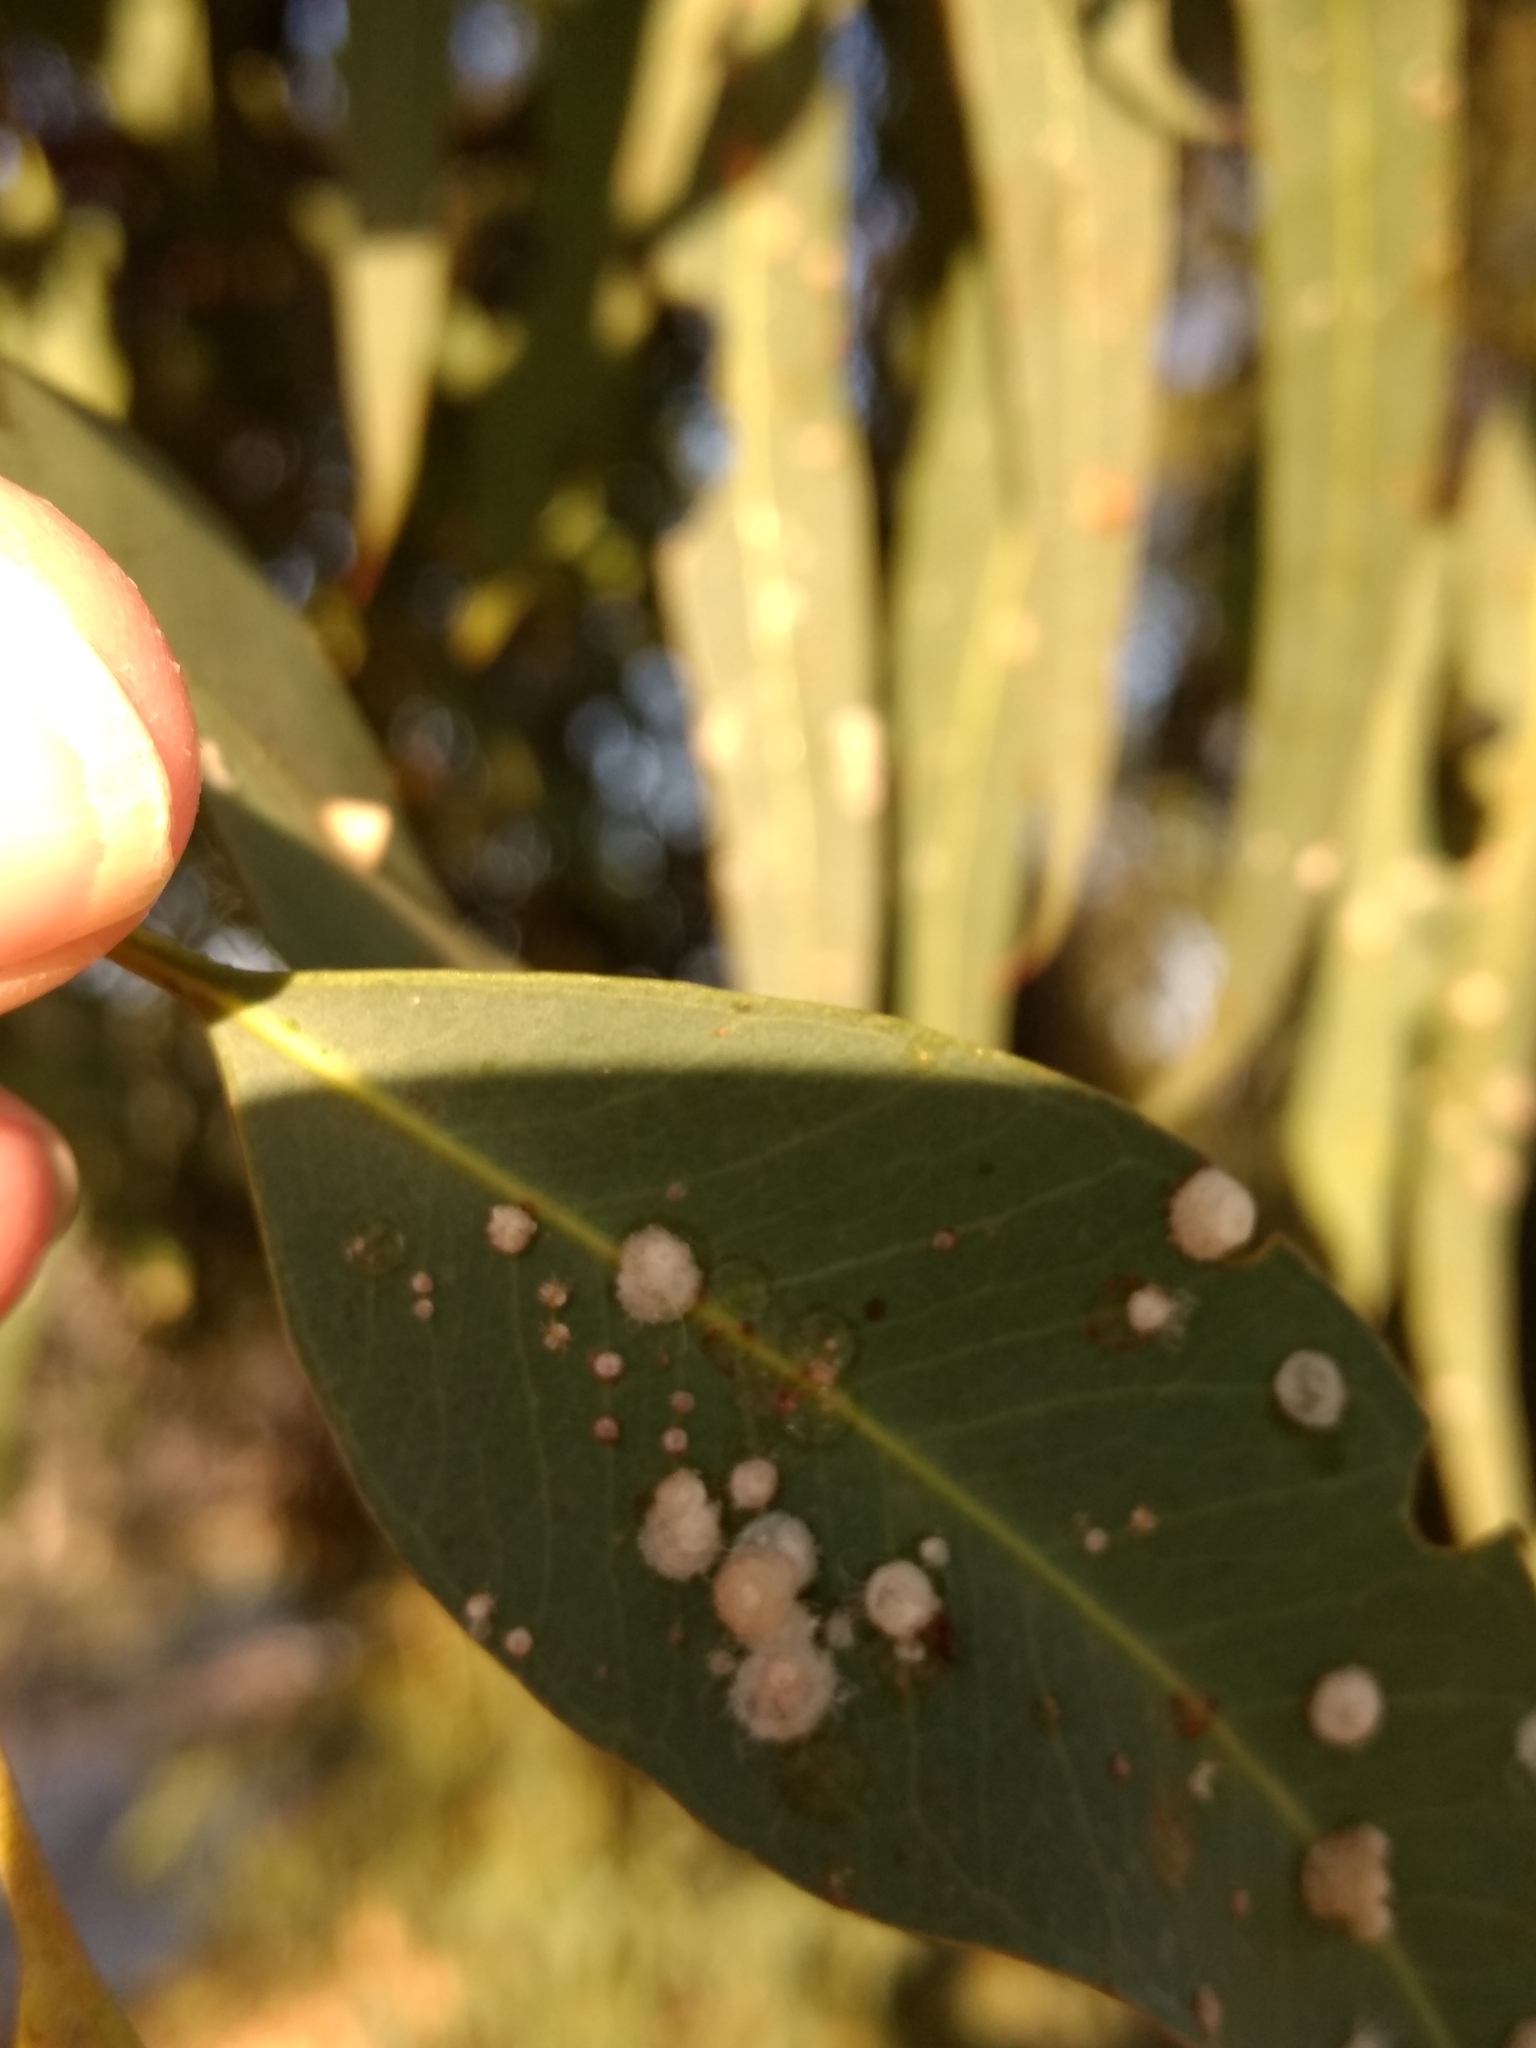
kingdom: Animalia
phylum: Arthropoda
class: Insecta
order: Hemiptera
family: Aphalaridae
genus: Glycaspis
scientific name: Glycaspis brimblecombei
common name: Red gum lerp psyllid
